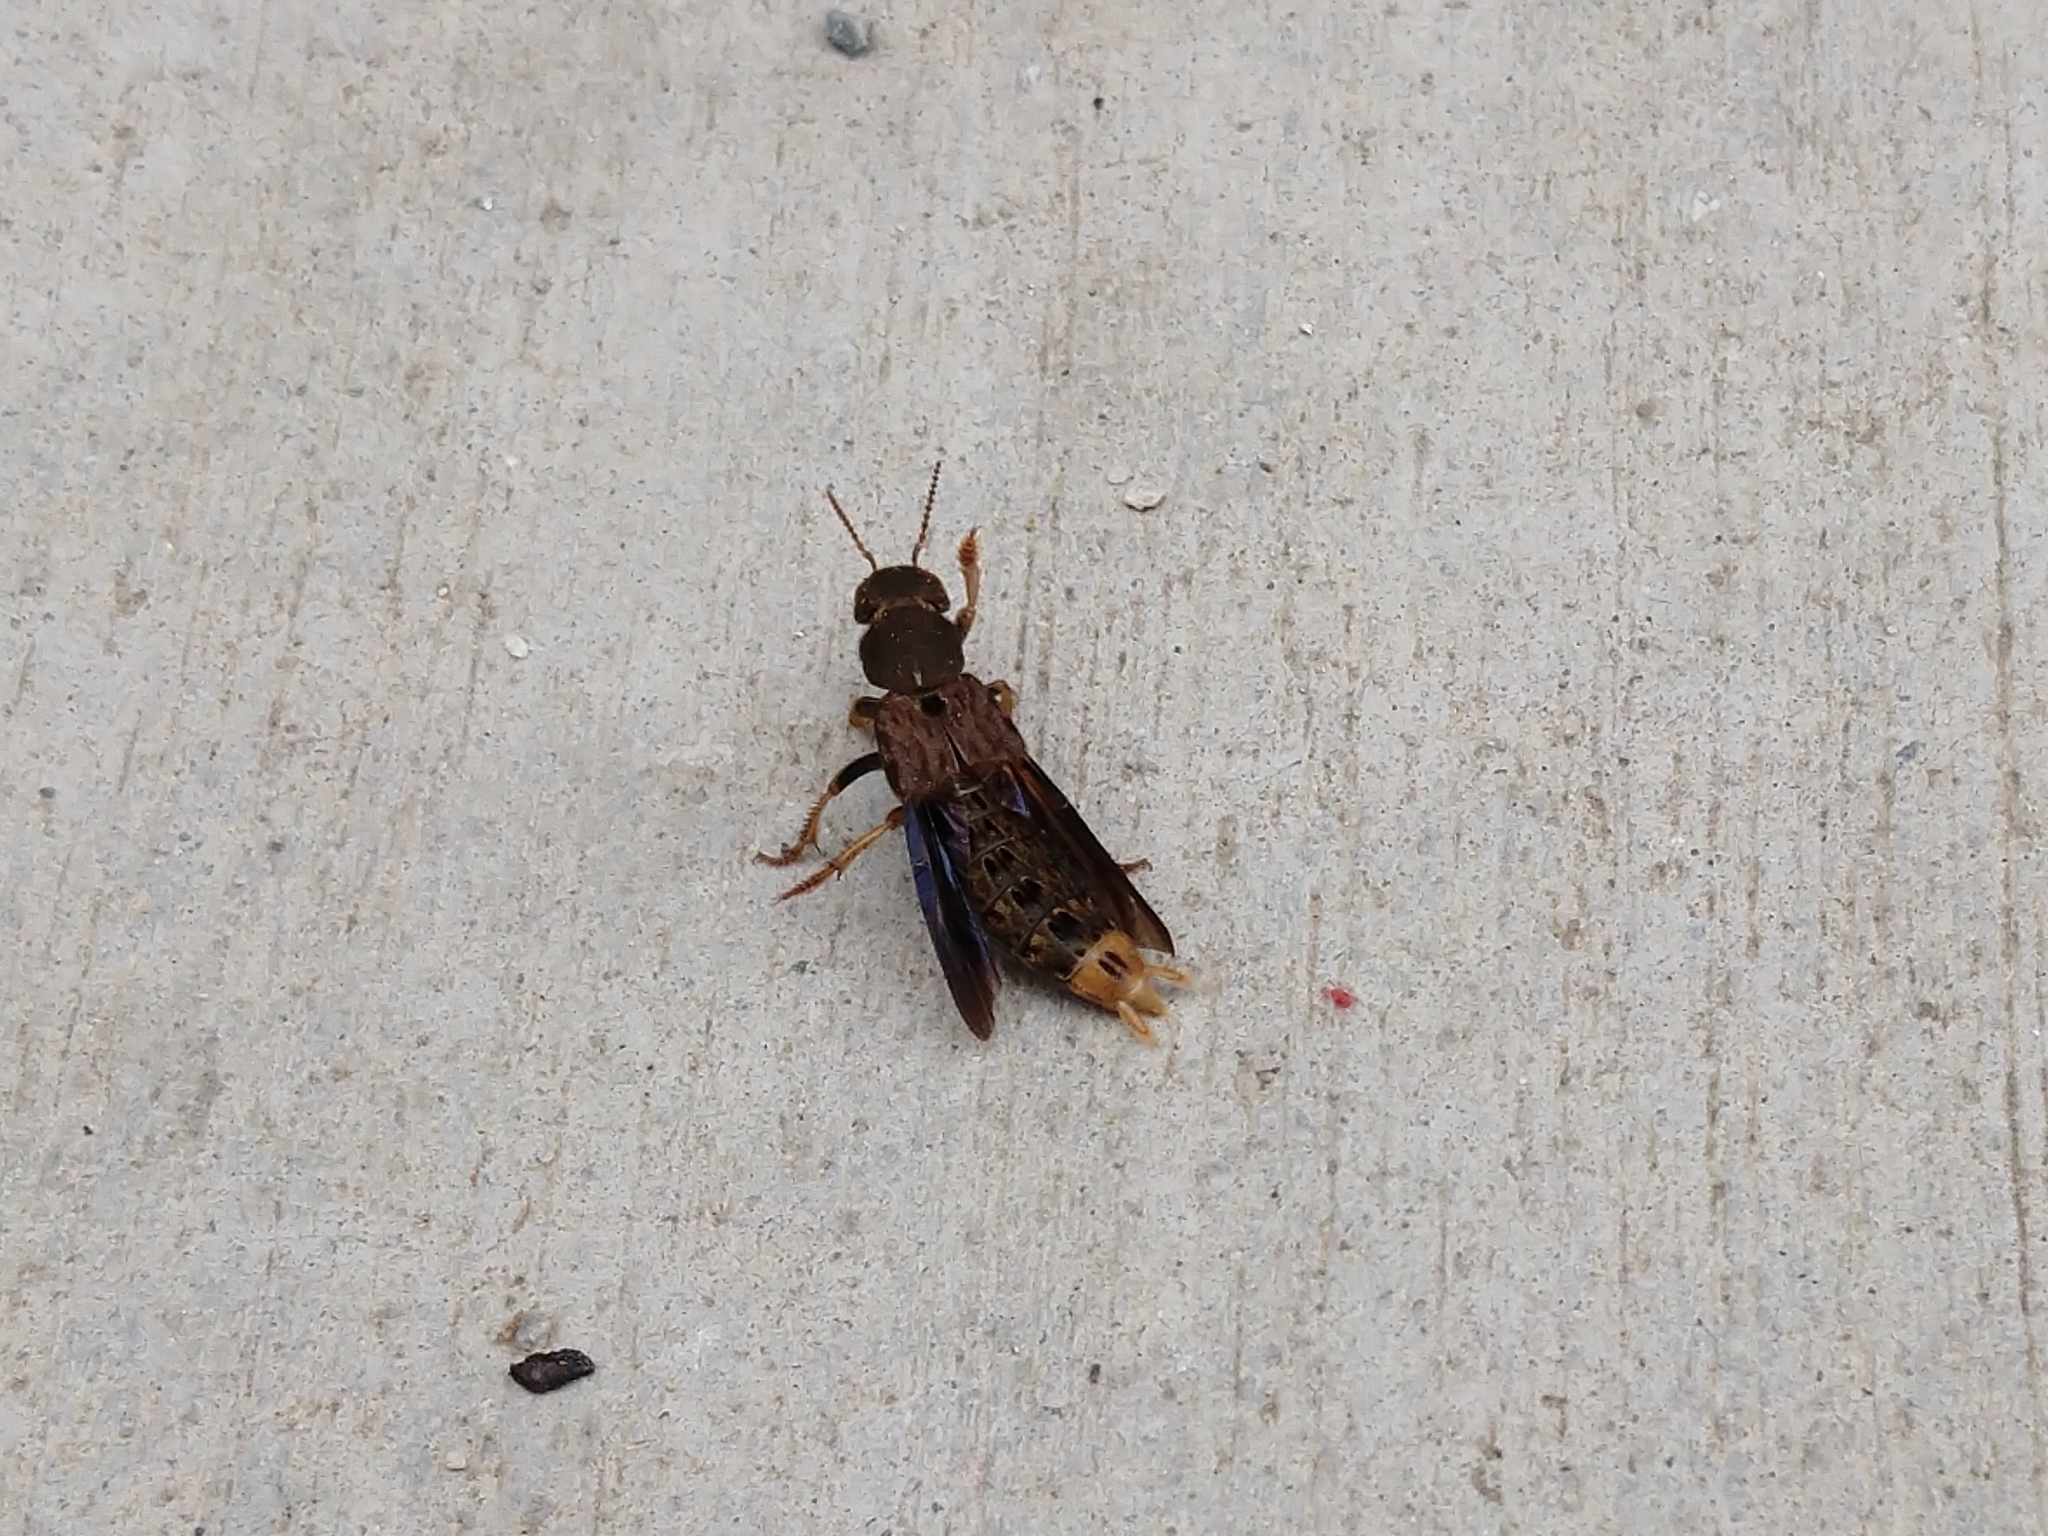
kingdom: Animalia
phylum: Arthropoda
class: Insecta
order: Coleoptera
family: Staphylinidae
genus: Platydracus
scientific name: Platydracus maculosus
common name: Brown rove beetle
